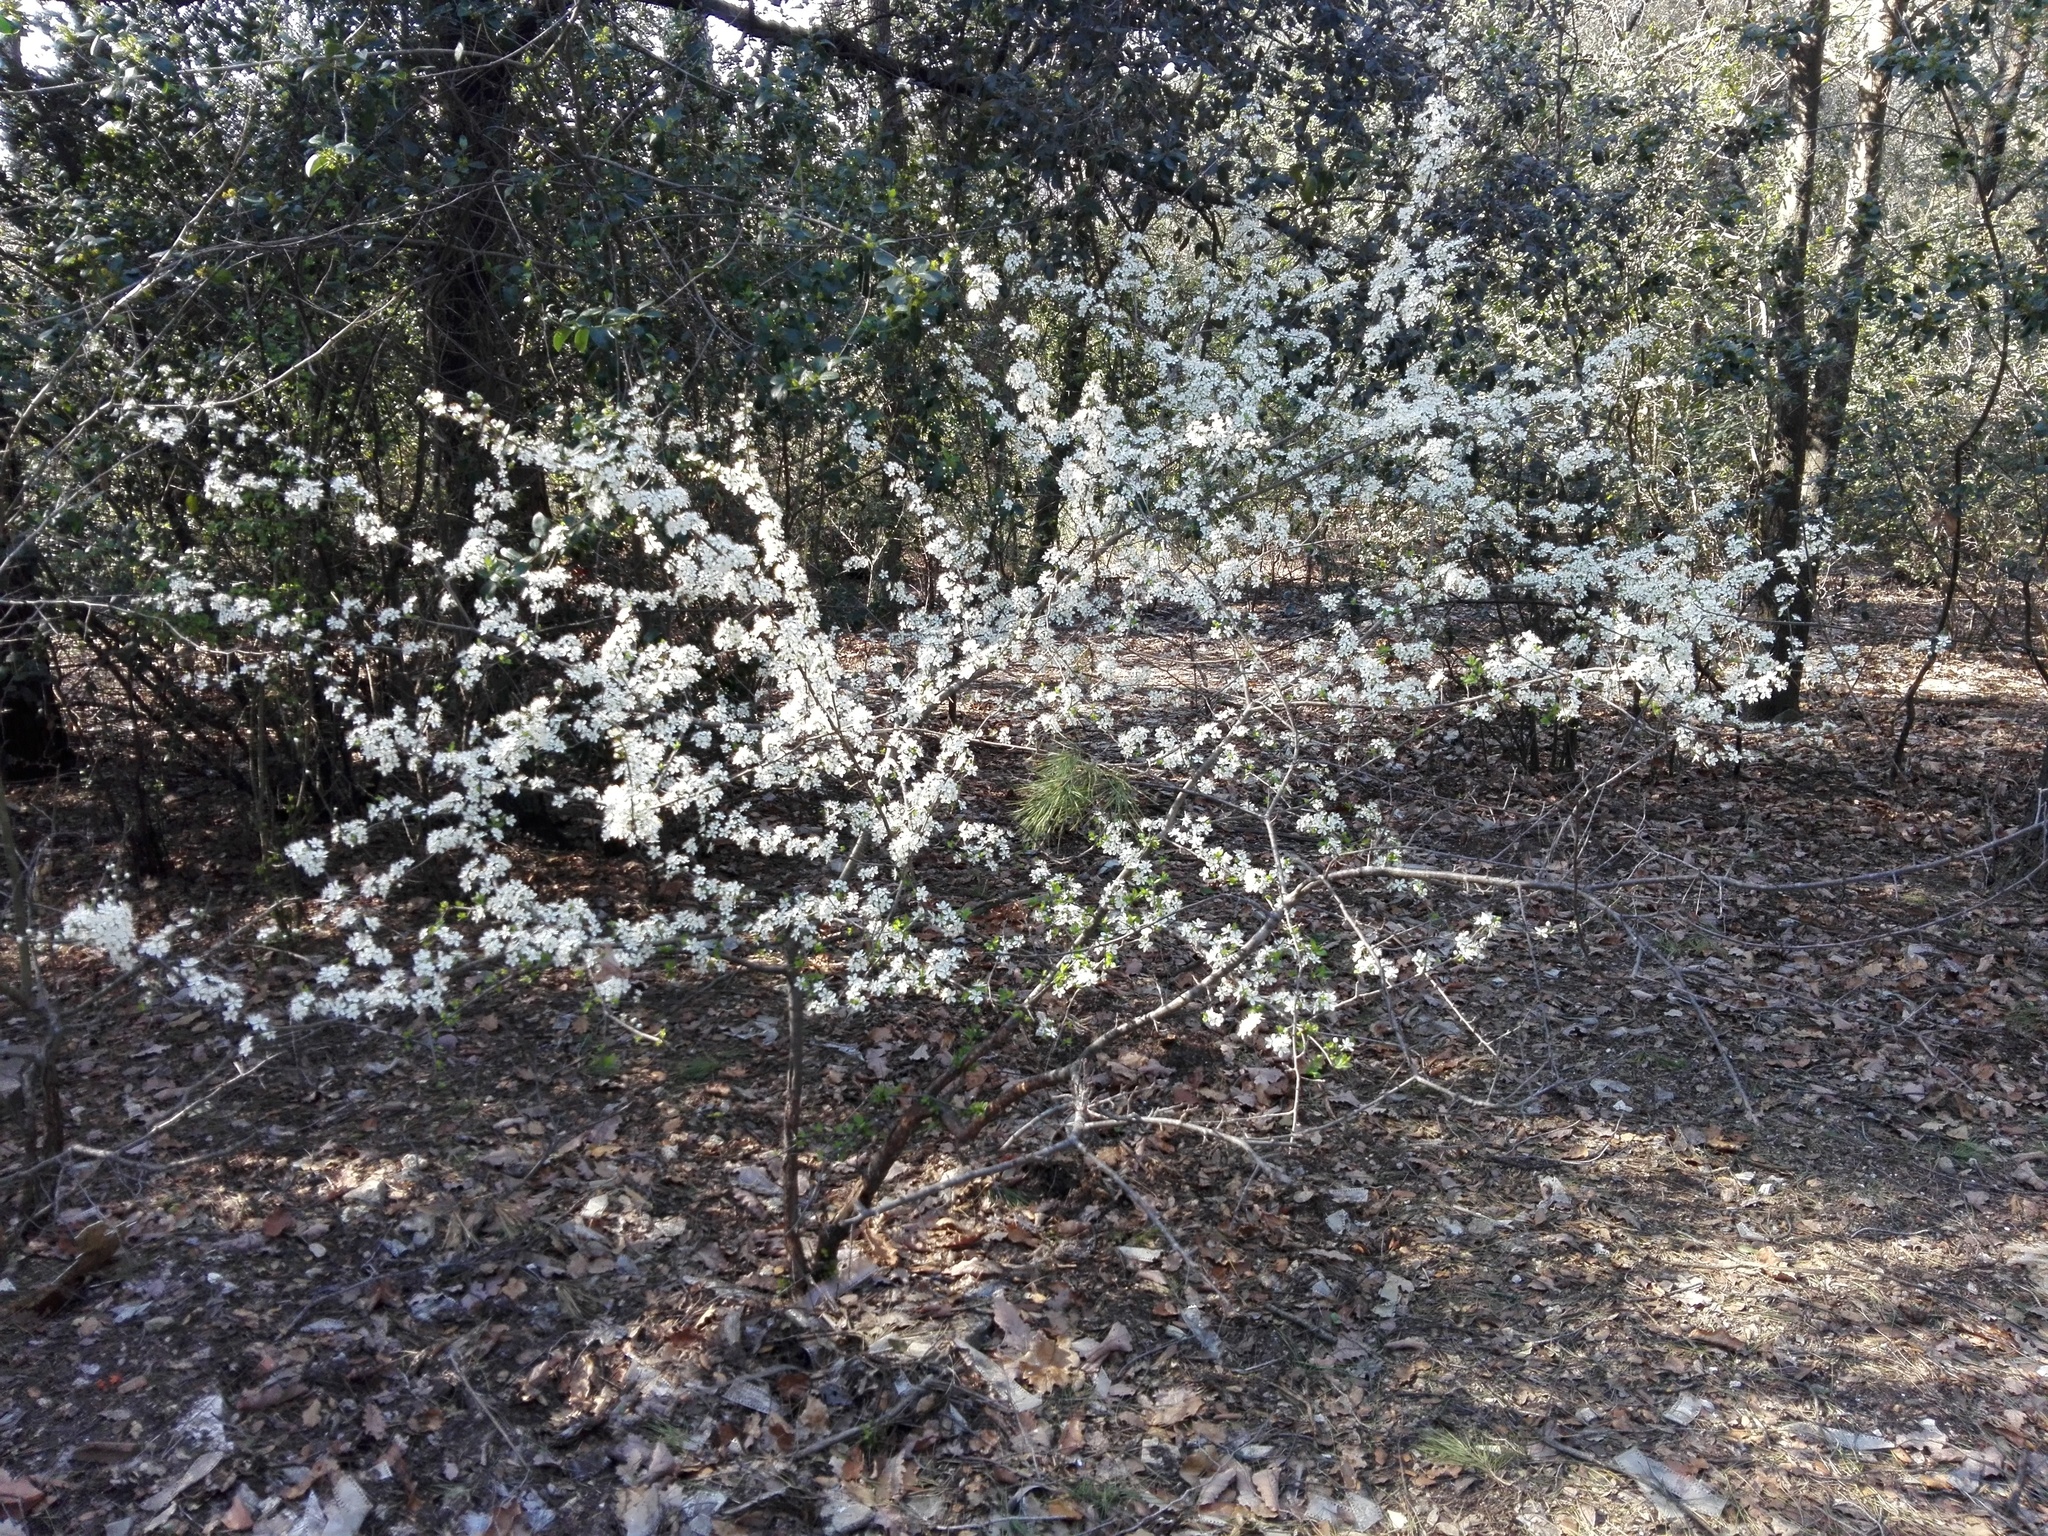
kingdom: Plantae
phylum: Tracheophyta
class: Magnoliopsida
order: Rosales
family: Rosaceae
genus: Prunus
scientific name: Prunus spinosa
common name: Blackthorn
